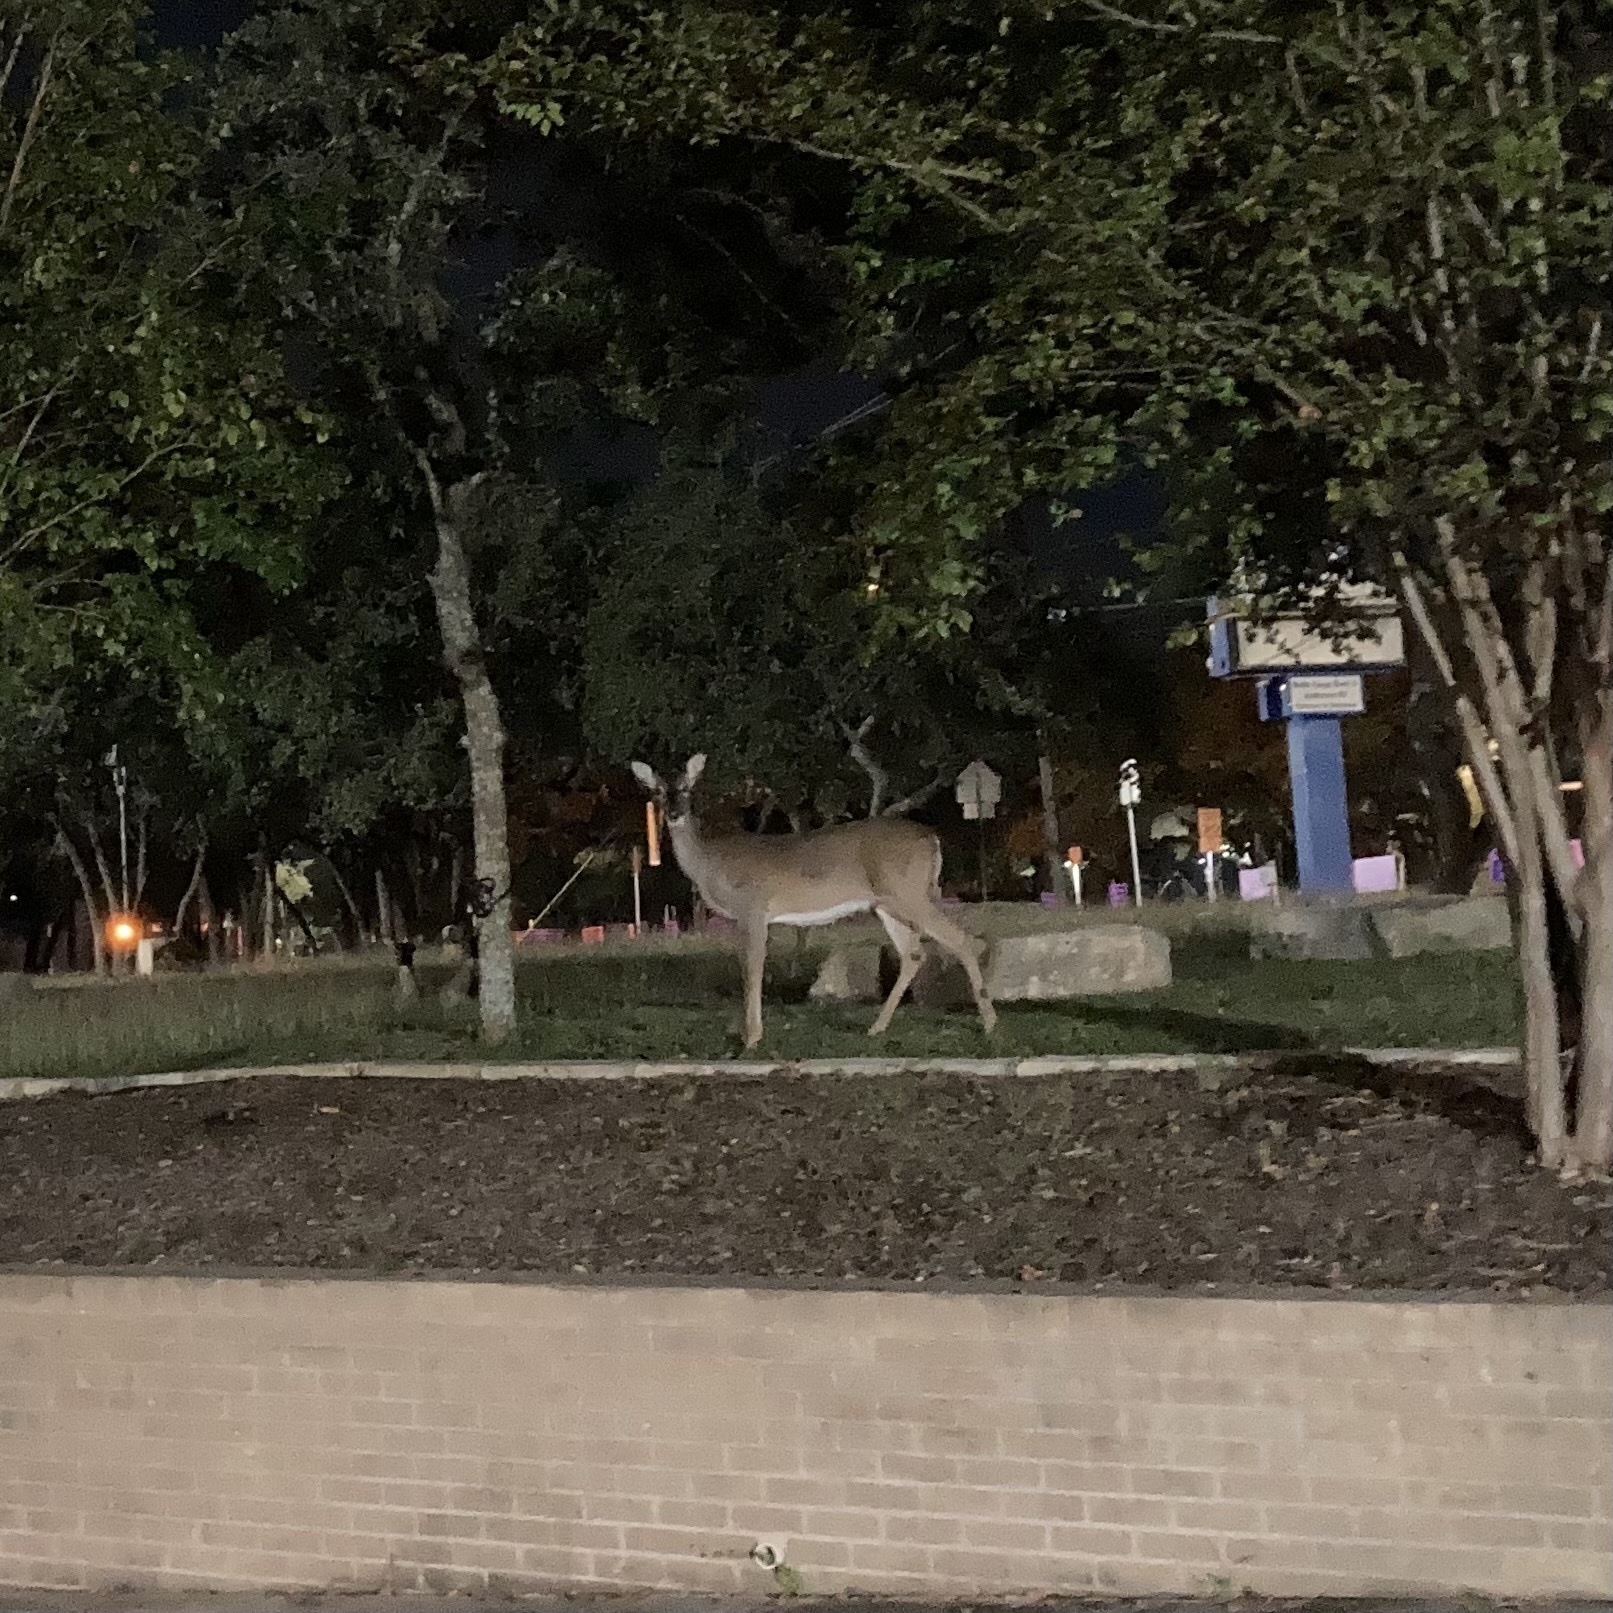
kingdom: Animalia
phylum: Chordata
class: Mammalia
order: Artiodactyla
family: Cervidae
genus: Odocoileus
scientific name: Odocoileus virginianus
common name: White-tailed deer
